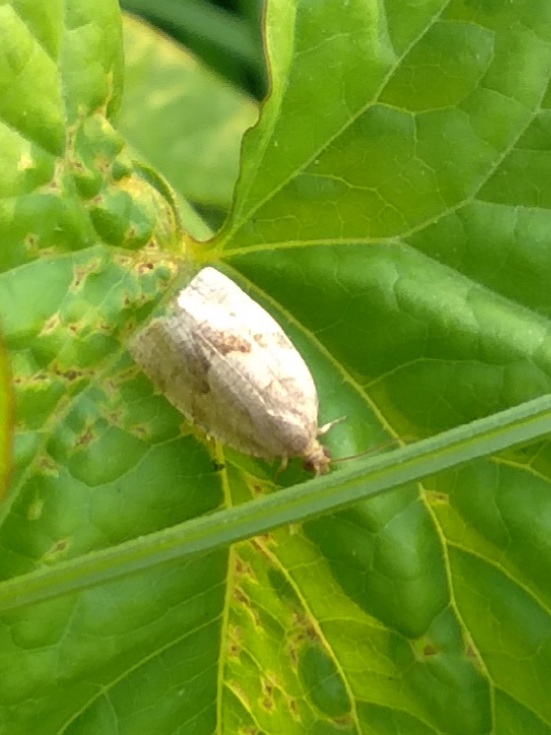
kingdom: Animalia
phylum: Arthropoda
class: Insecta
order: Lepidoptera
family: Tortricidae
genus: Choristoneura
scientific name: Choristoneura diversana
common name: Forest tortrix
